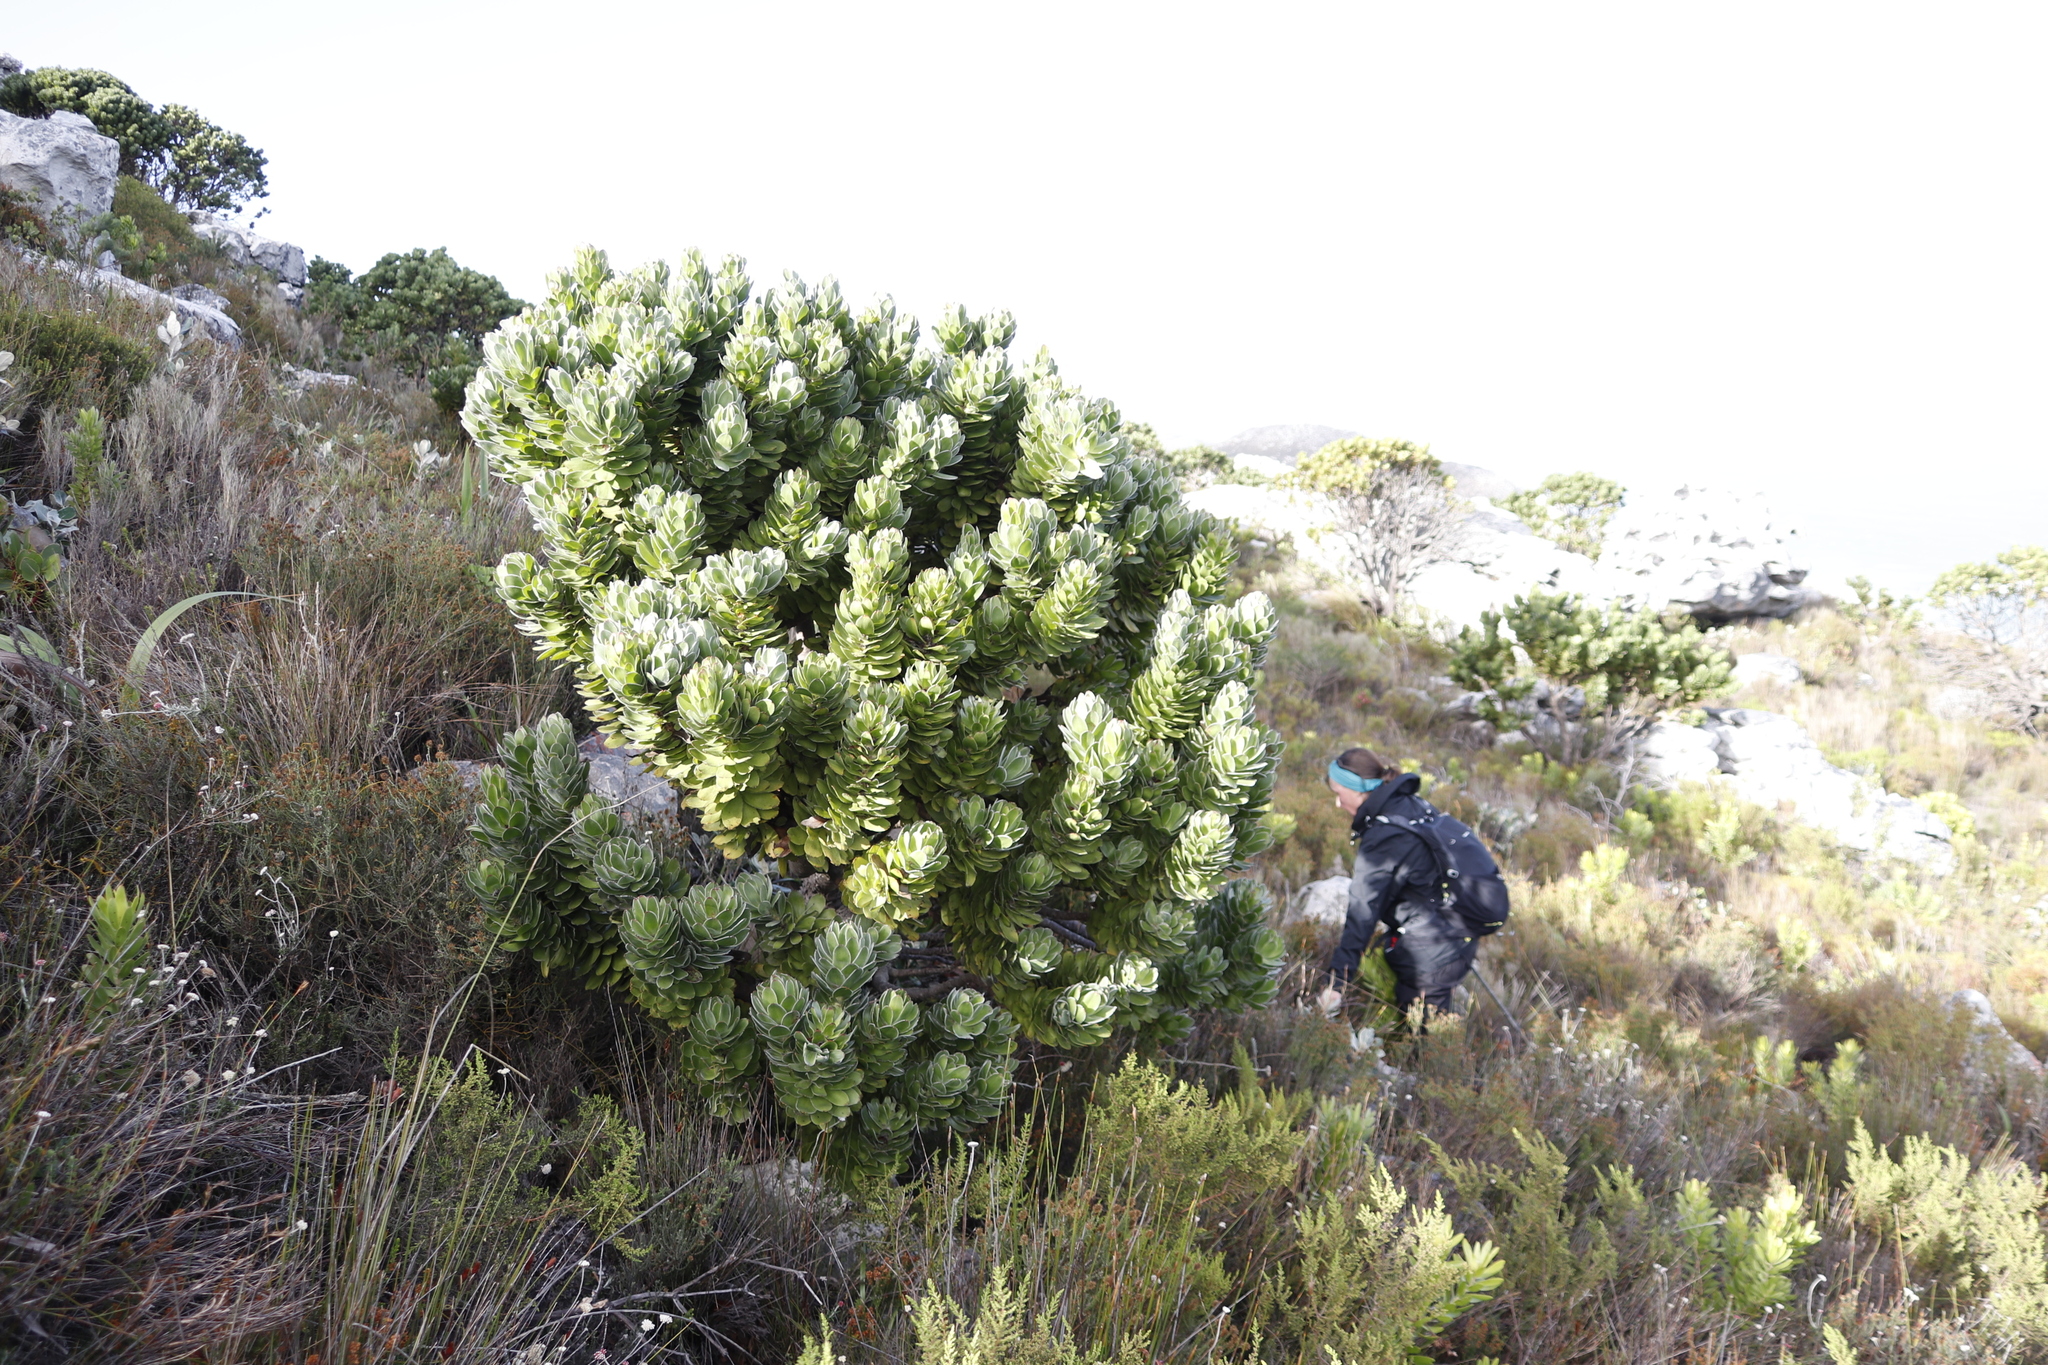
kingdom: Plantae
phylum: Tracheophyta
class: Magnoliopsida
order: Proteales
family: Proteaceae
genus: Mimetes
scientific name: Mimetes fimbriifolius
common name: Fringed bottlebrush
